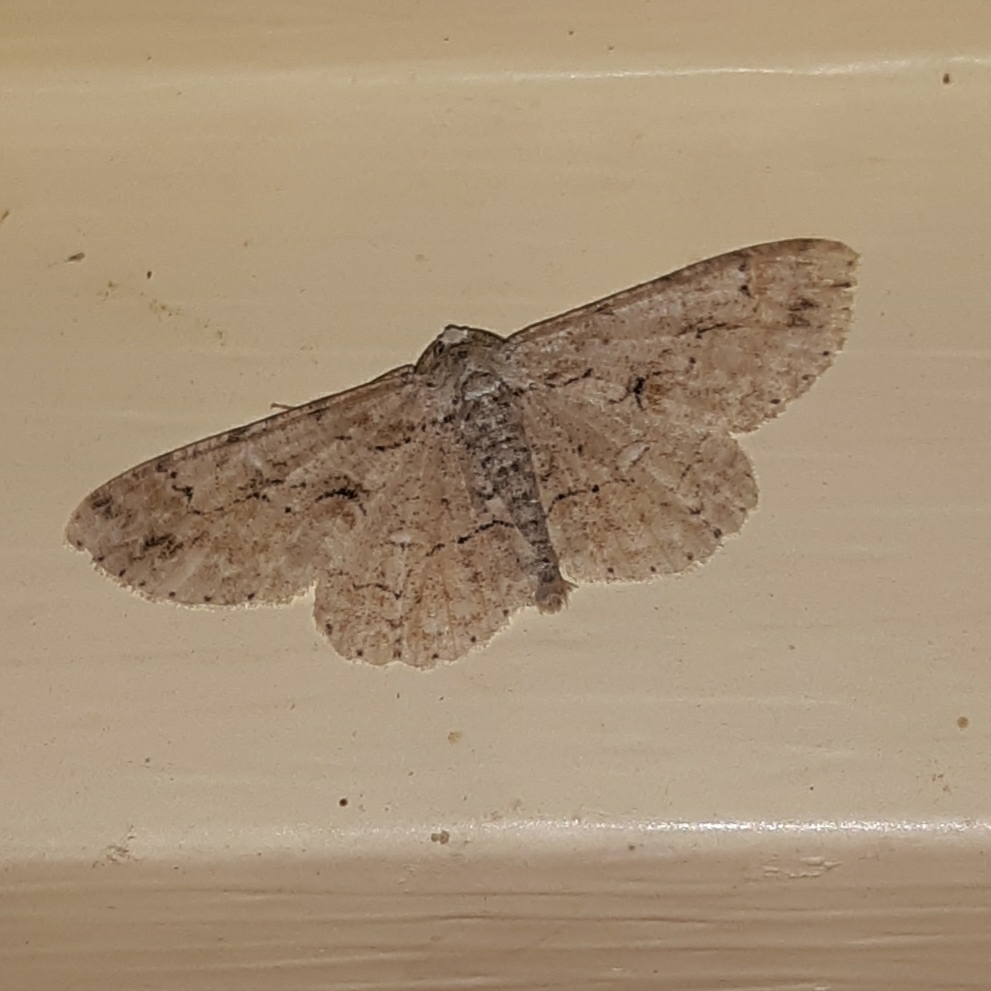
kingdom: Animalia
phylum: Arthropoda
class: Insecta
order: Lepidoptera
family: Geometridae
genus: Iridopsis
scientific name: Iridopsis defectaria
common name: Brown-shaded gray
